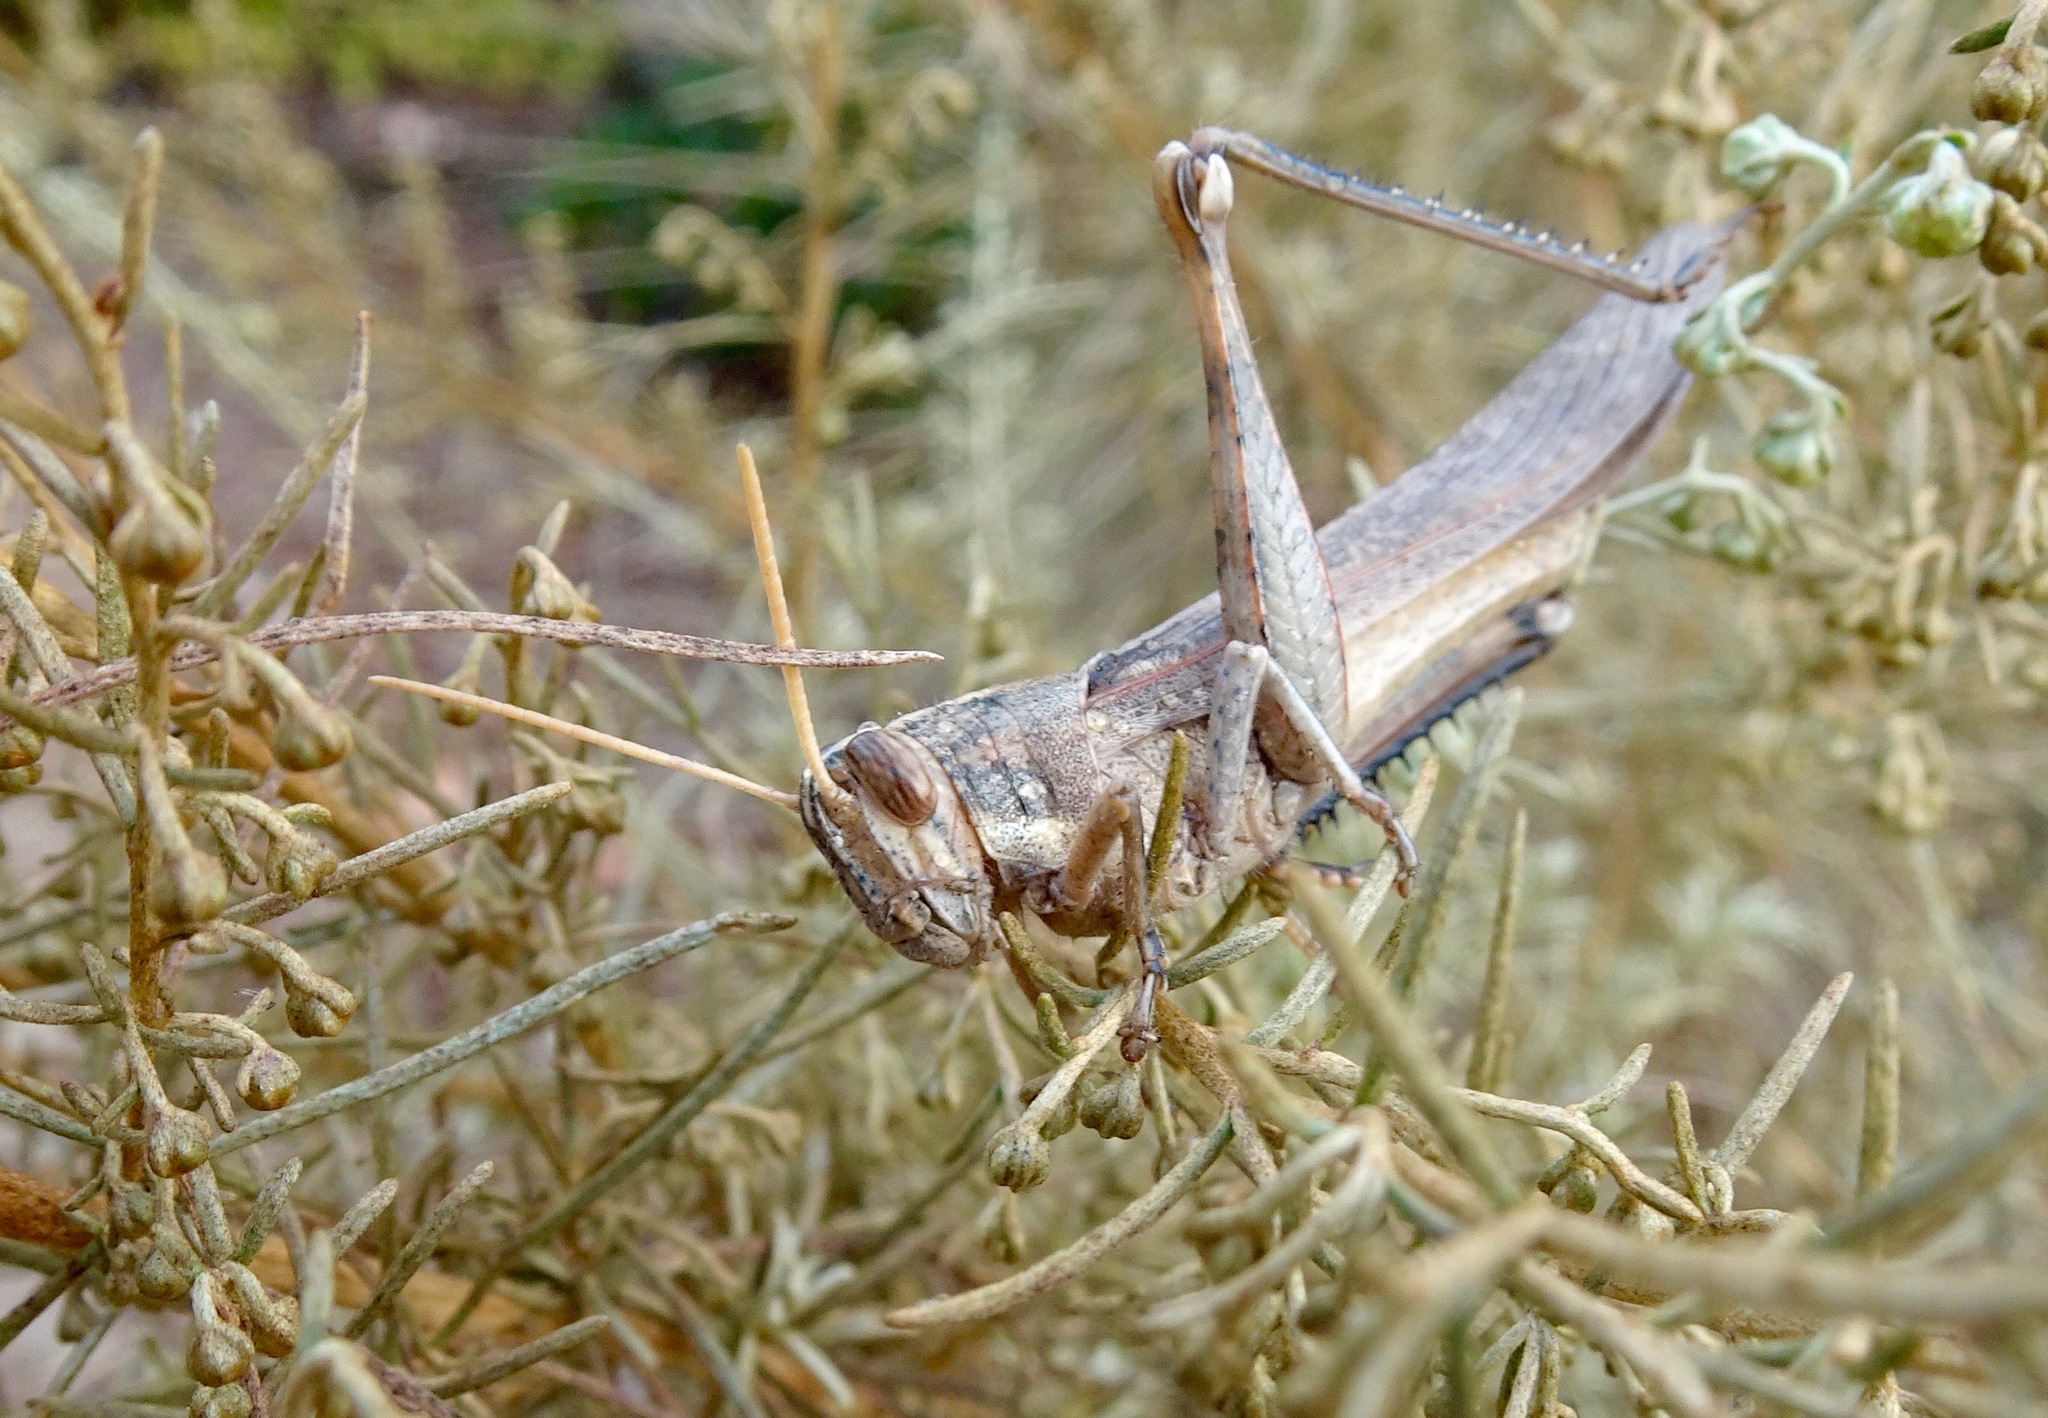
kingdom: Animalia
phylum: Arthropoda
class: Insecta
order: Orthoptera
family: Acrididae
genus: Schistocerca
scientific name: Schistocerca nitens
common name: Vagrant grasshopper
